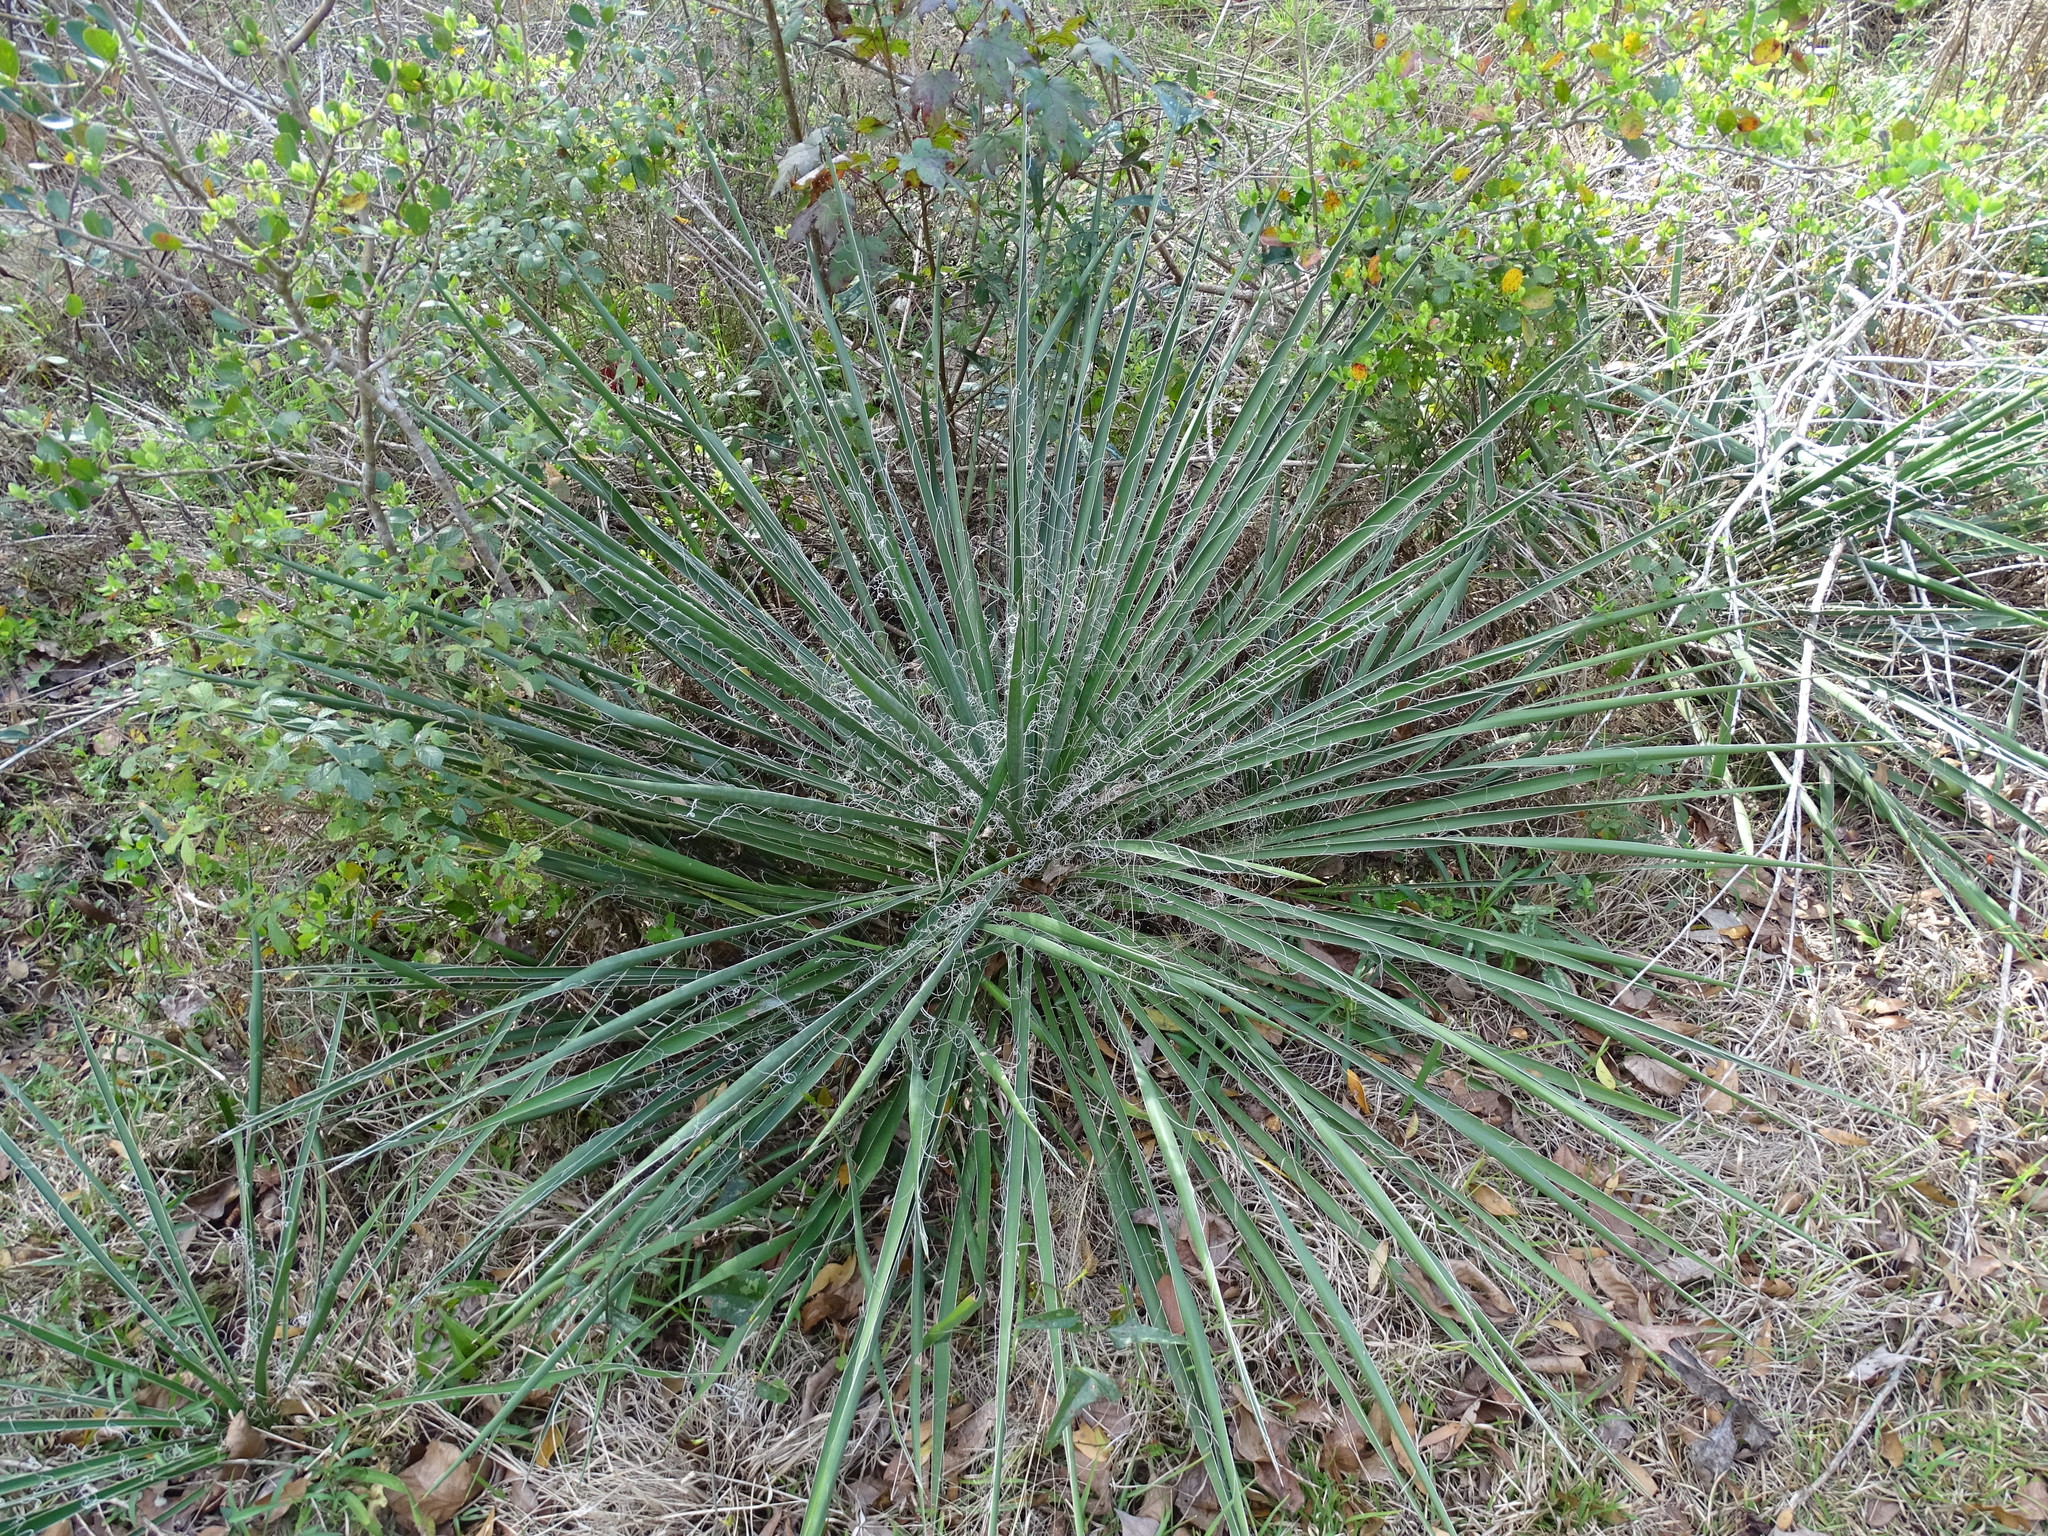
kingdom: Plantae
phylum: Tracheophyta
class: Liliopsida
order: Asparagales
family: Asparagaceae
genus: Yucca
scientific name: Yucca filamentosa
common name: Adam's-needle
